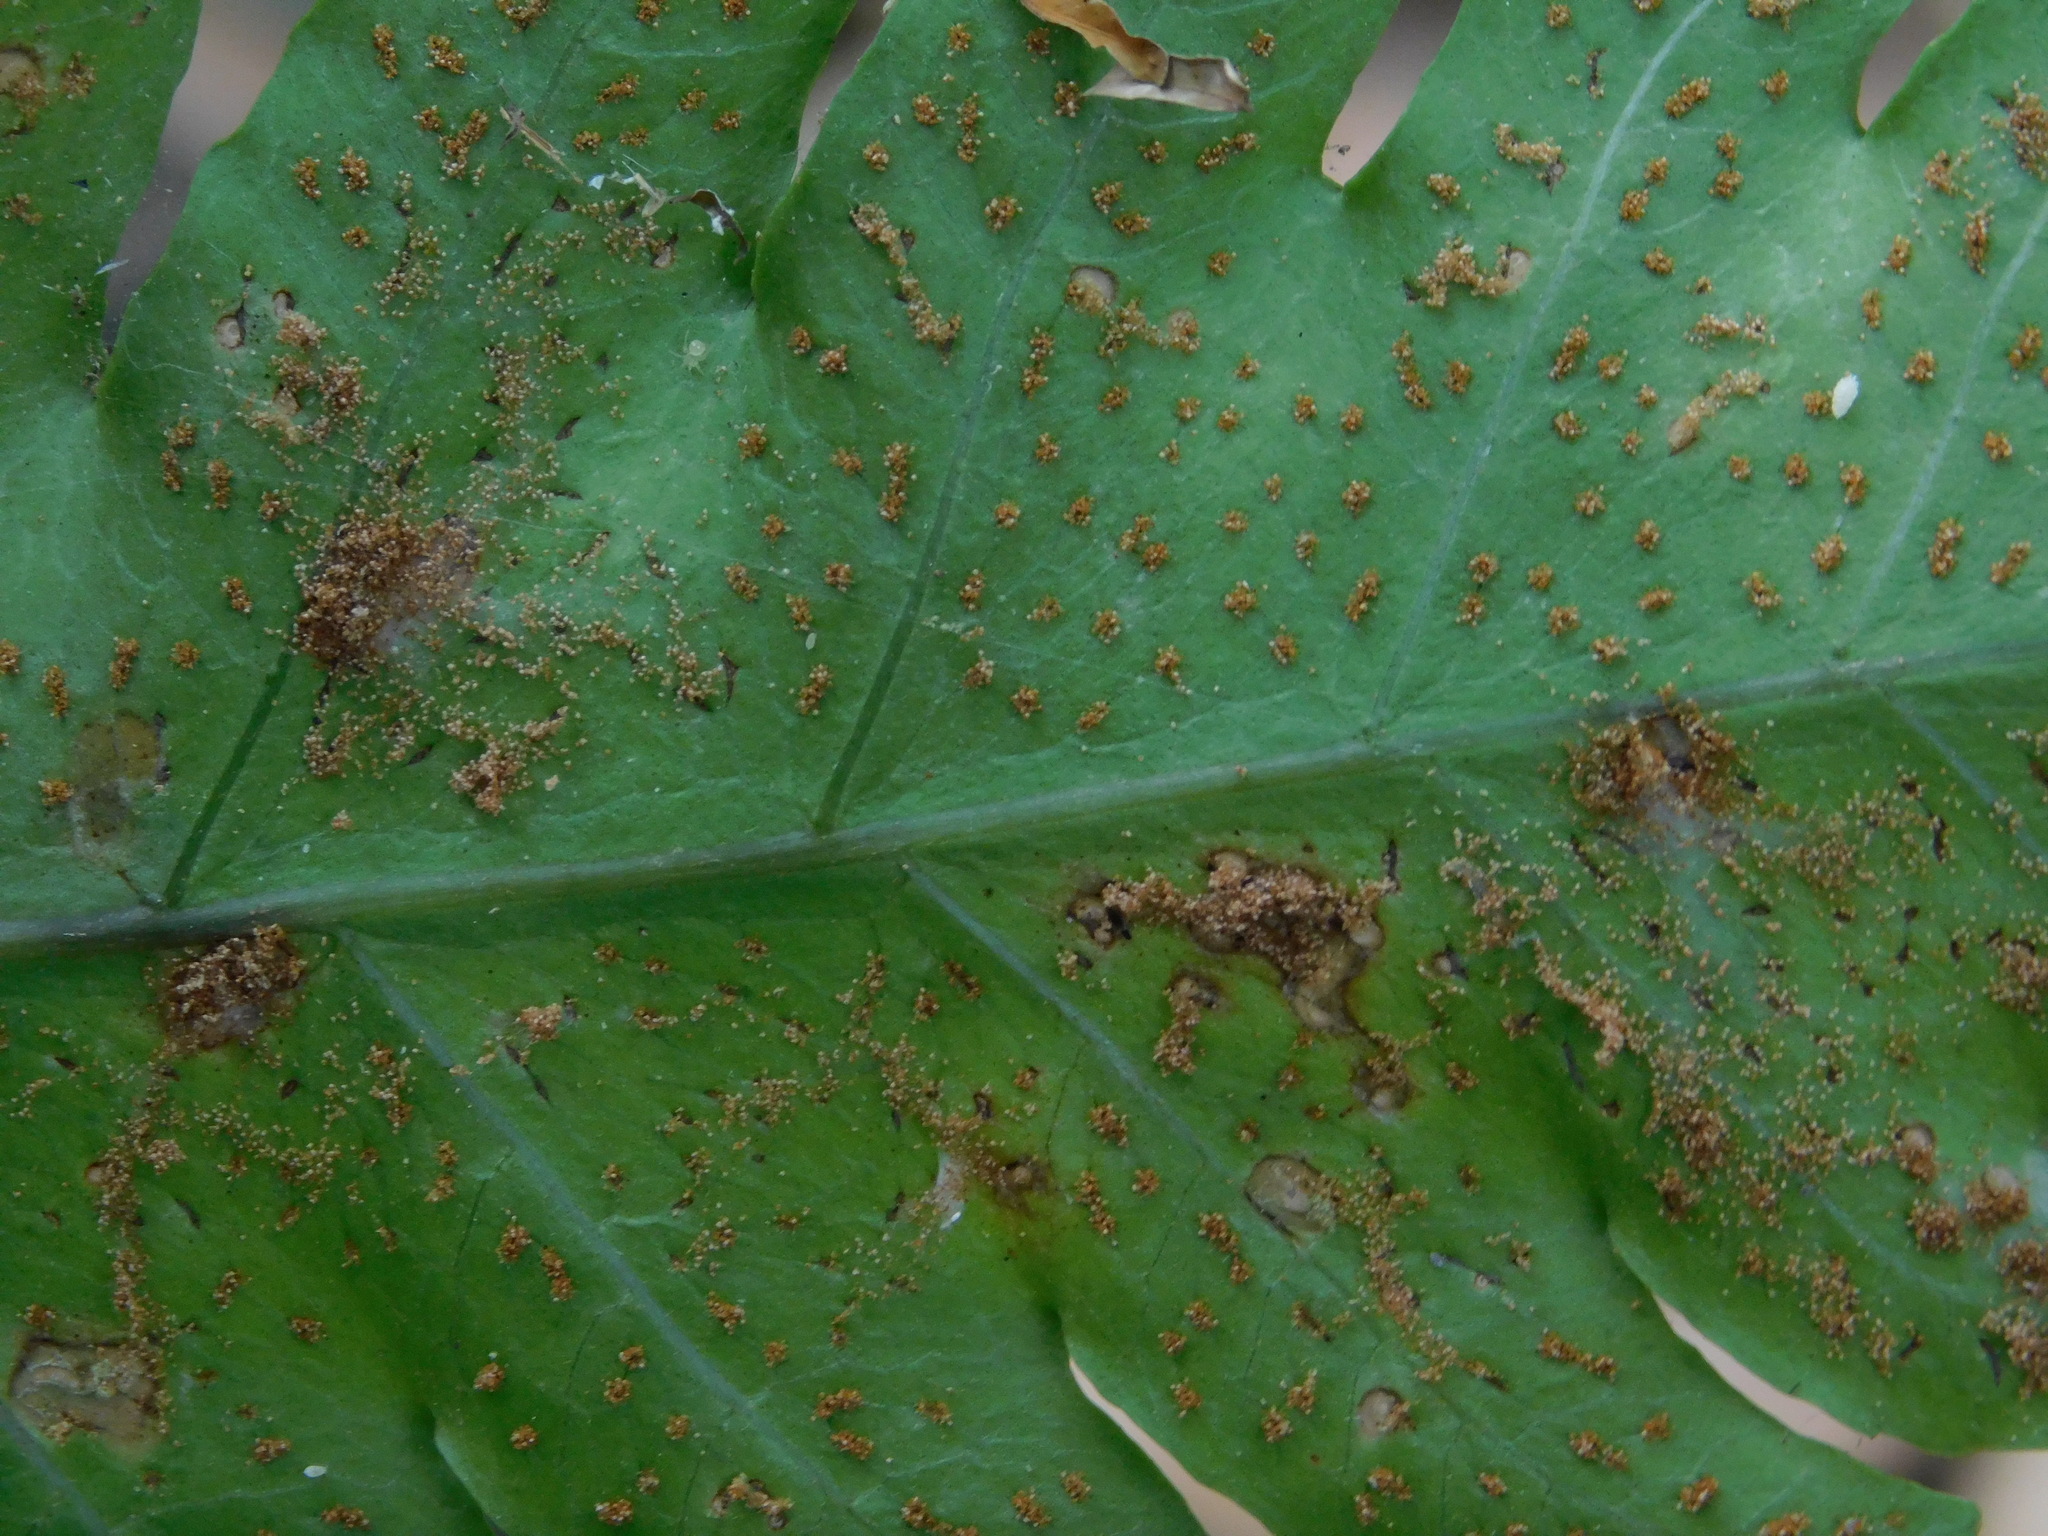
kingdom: Plantae
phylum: Tracheophyta
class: Polypodiopsida
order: Polypodiales
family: Dryopteridaceae
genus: Pleocnemia
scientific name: Pleocnemia irregularis
